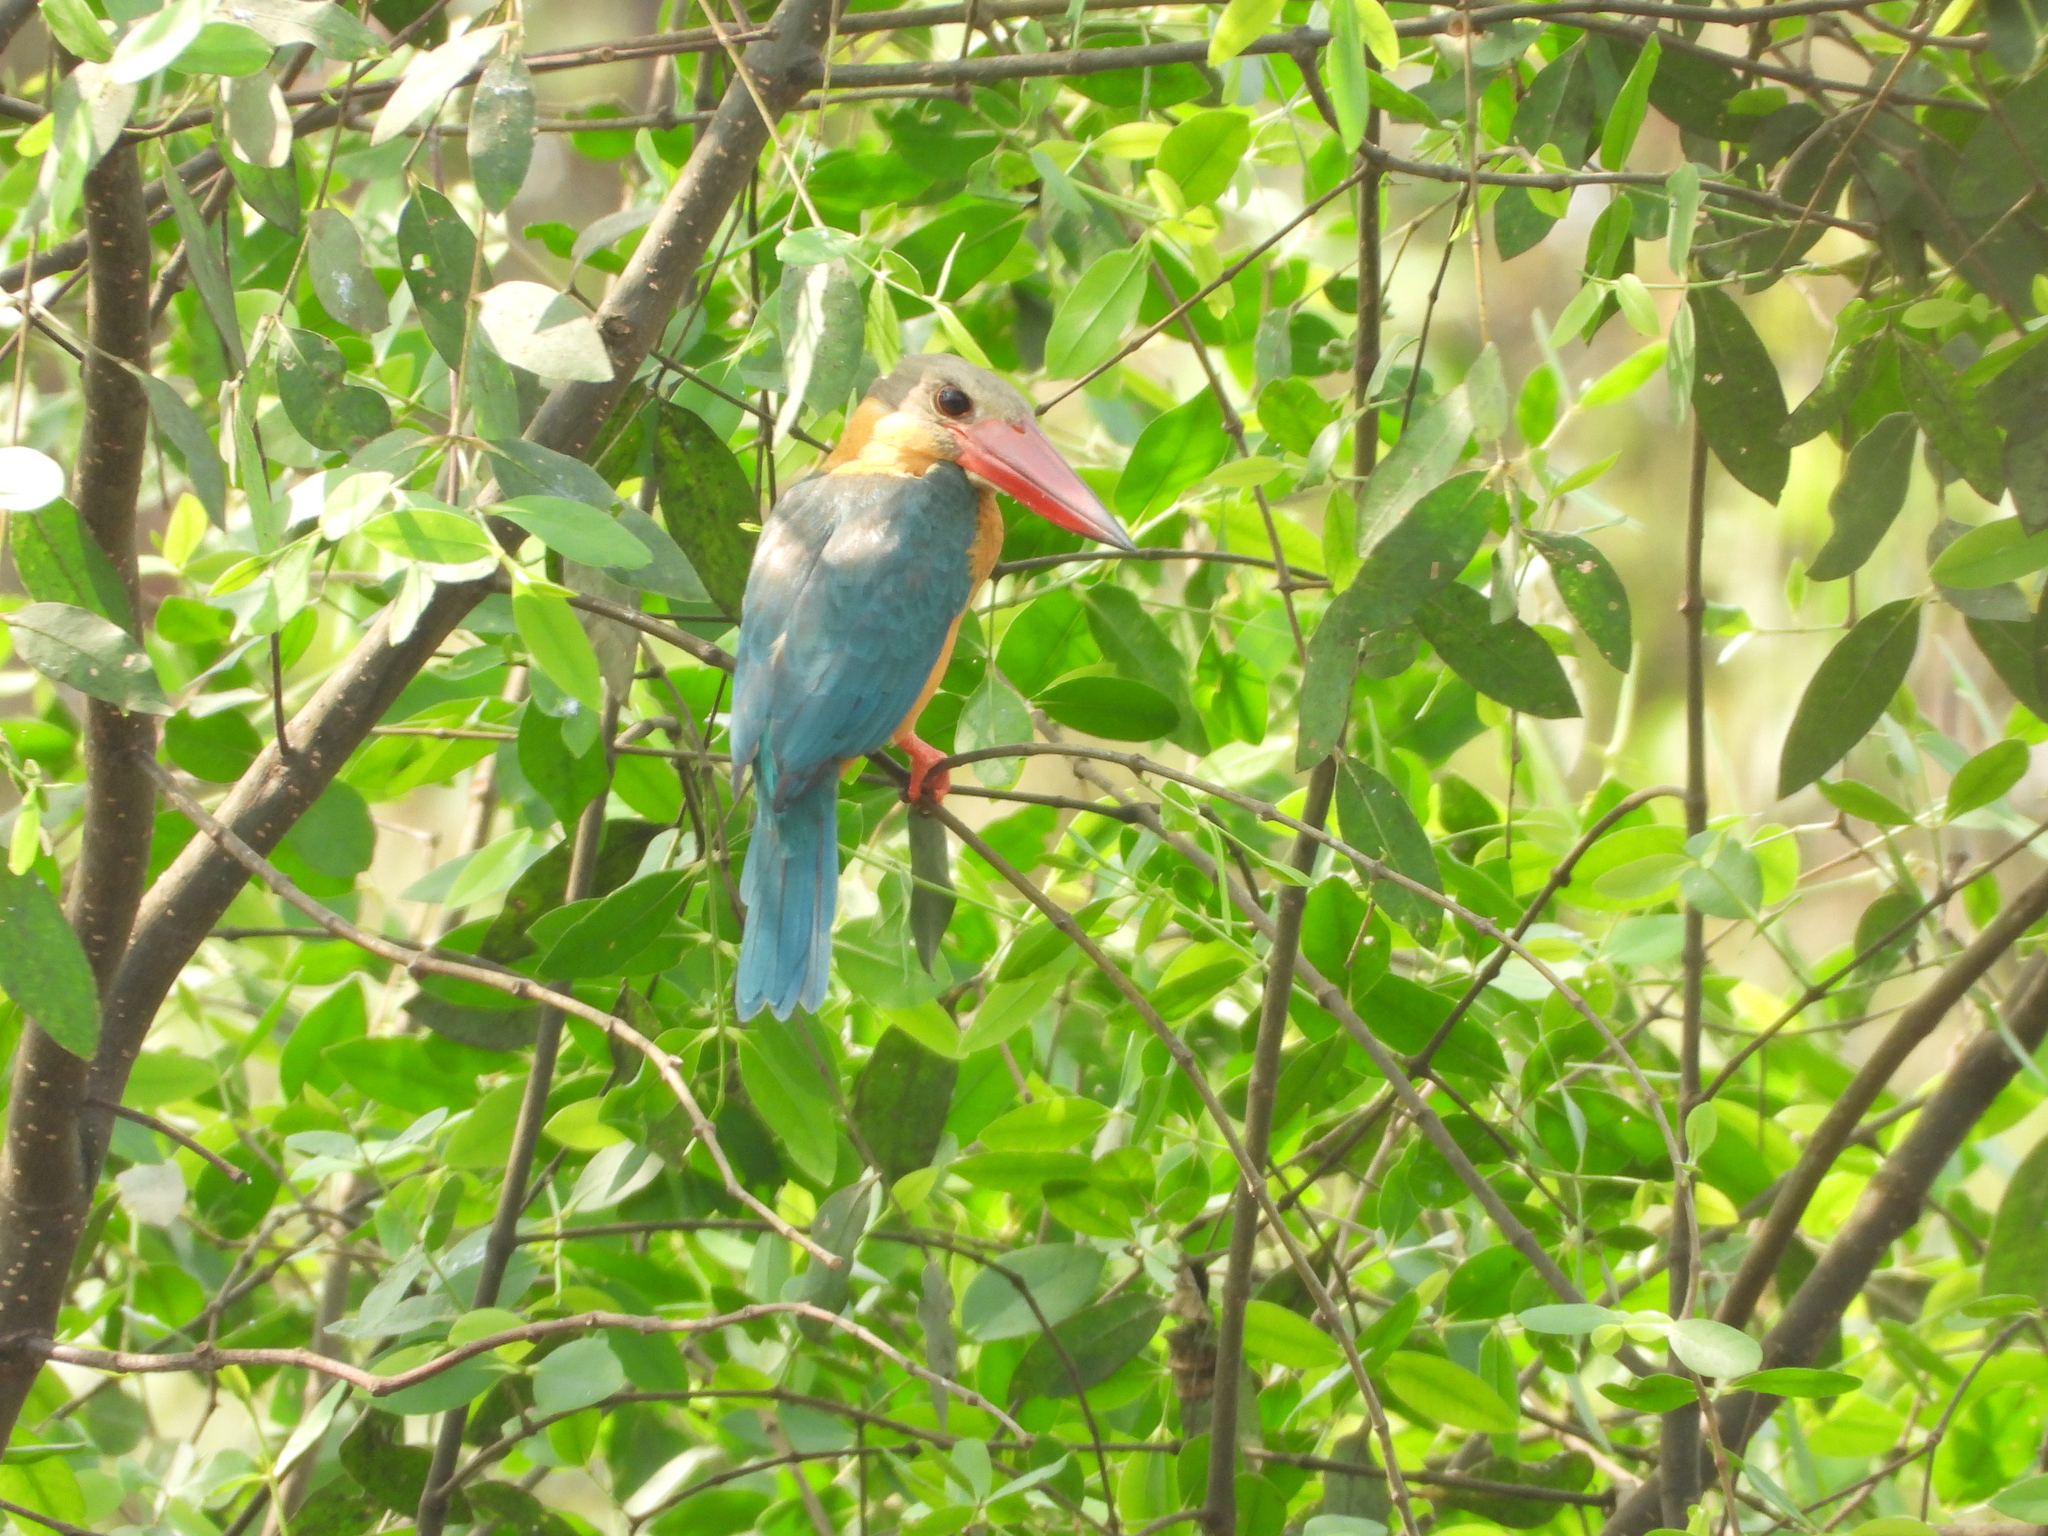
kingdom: Animalia
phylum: Chordata
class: Aves
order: Coraciiformes
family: Alcedinidae
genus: Pelargopsis
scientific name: Pelargopsis capensis
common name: Stork-billed kingfisher
